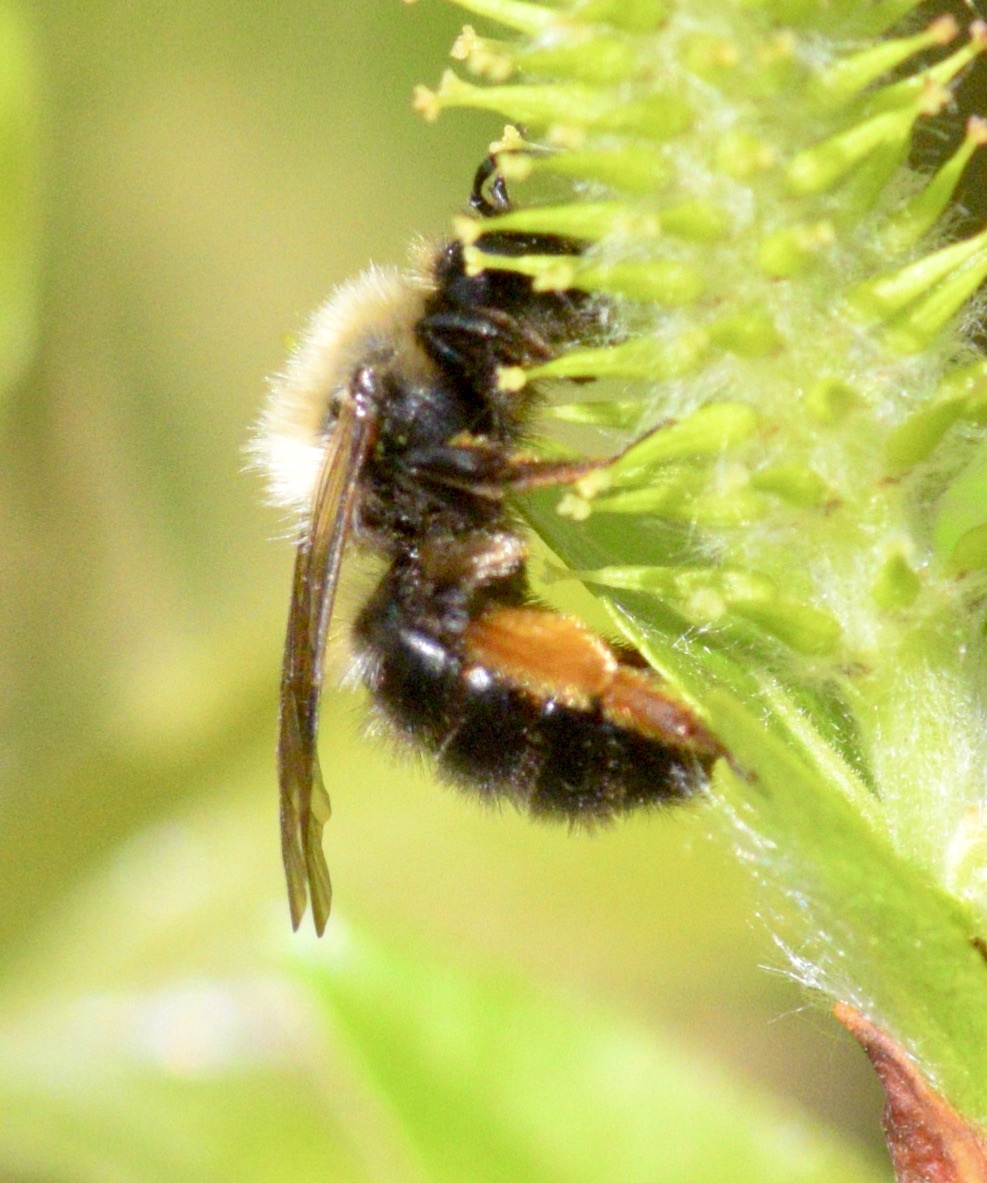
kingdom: Animalia
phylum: Arthropoda
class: Insecta
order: Hymenoptera
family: Andrenidae
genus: Andrena
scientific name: Andrena clarkella
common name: Clarke's mining bee
